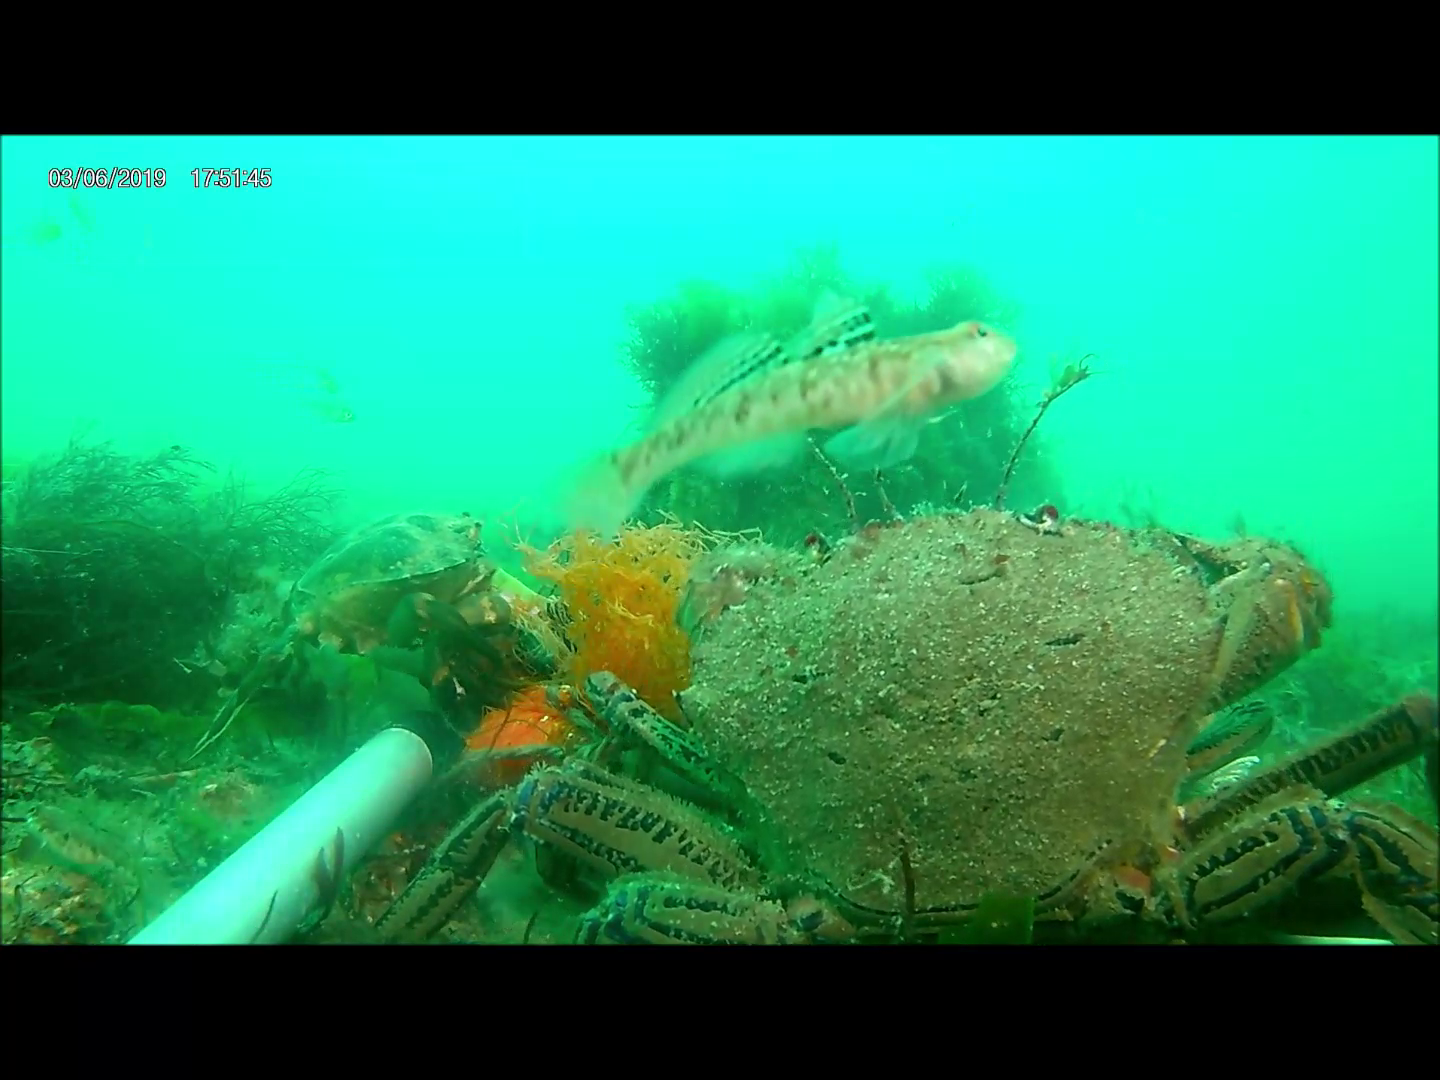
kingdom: Animalia
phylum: Chordata
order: Perciformes
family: Gobiidae
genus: Pomatoschistus
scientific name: Pomatoschistus pictus
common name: Painted goby
